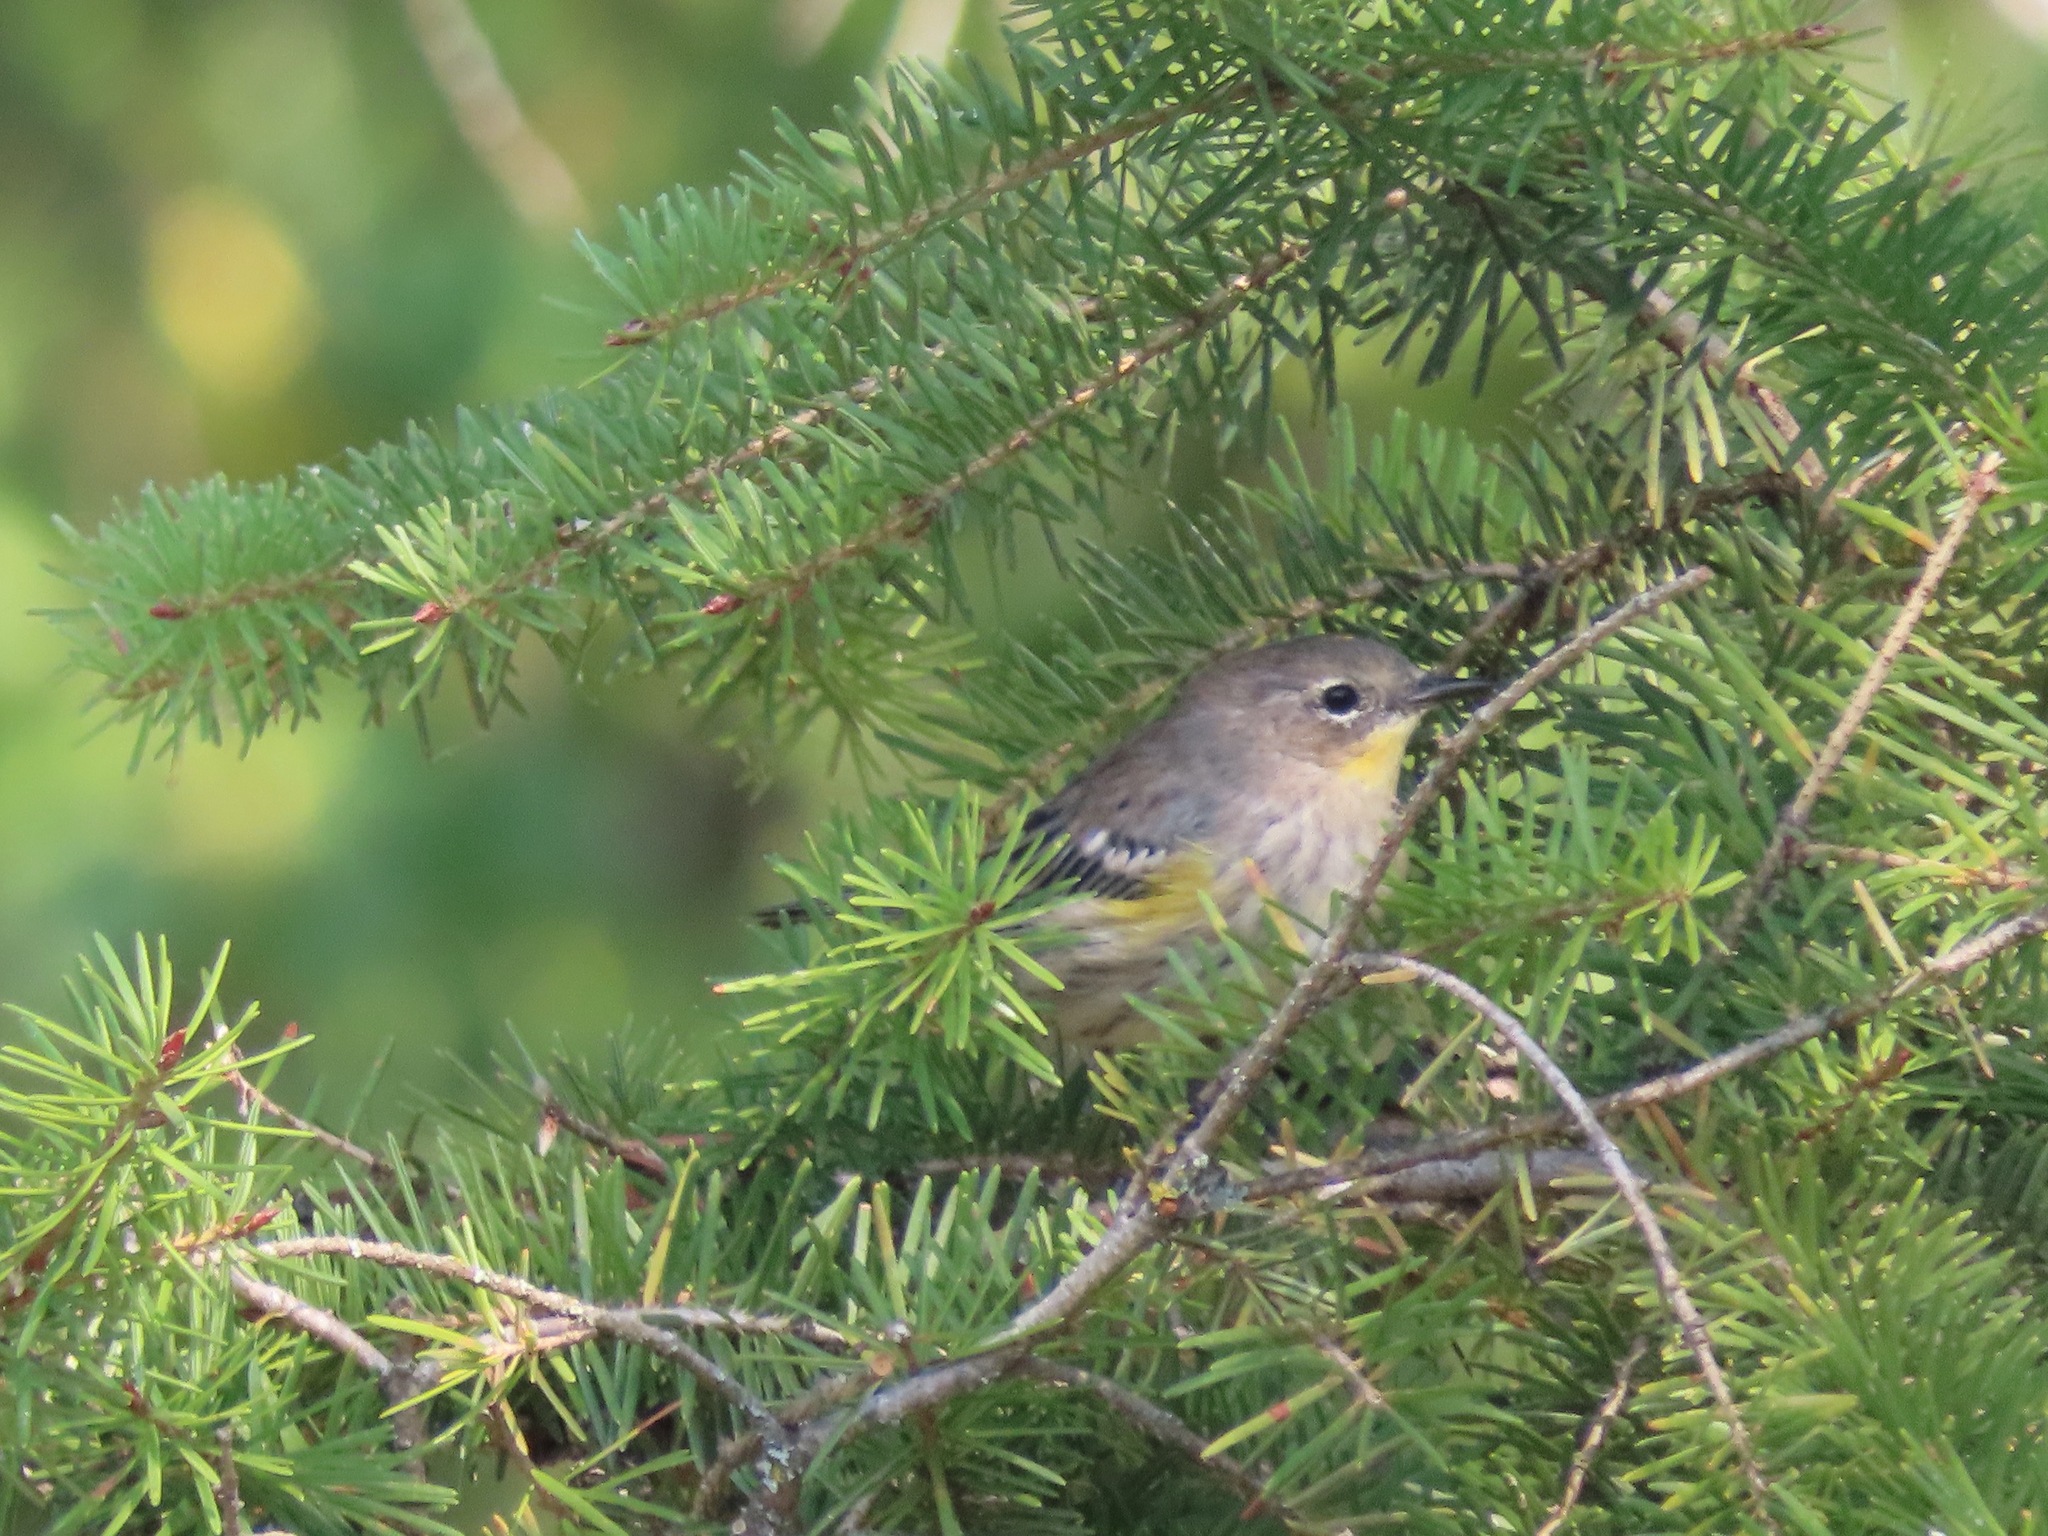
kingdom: Animalia
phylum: Chordata
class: Aves
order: Passeriformes
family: Parulidae
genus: Setophaga
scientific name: Setophaga coronata
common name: Myrtle warbler
